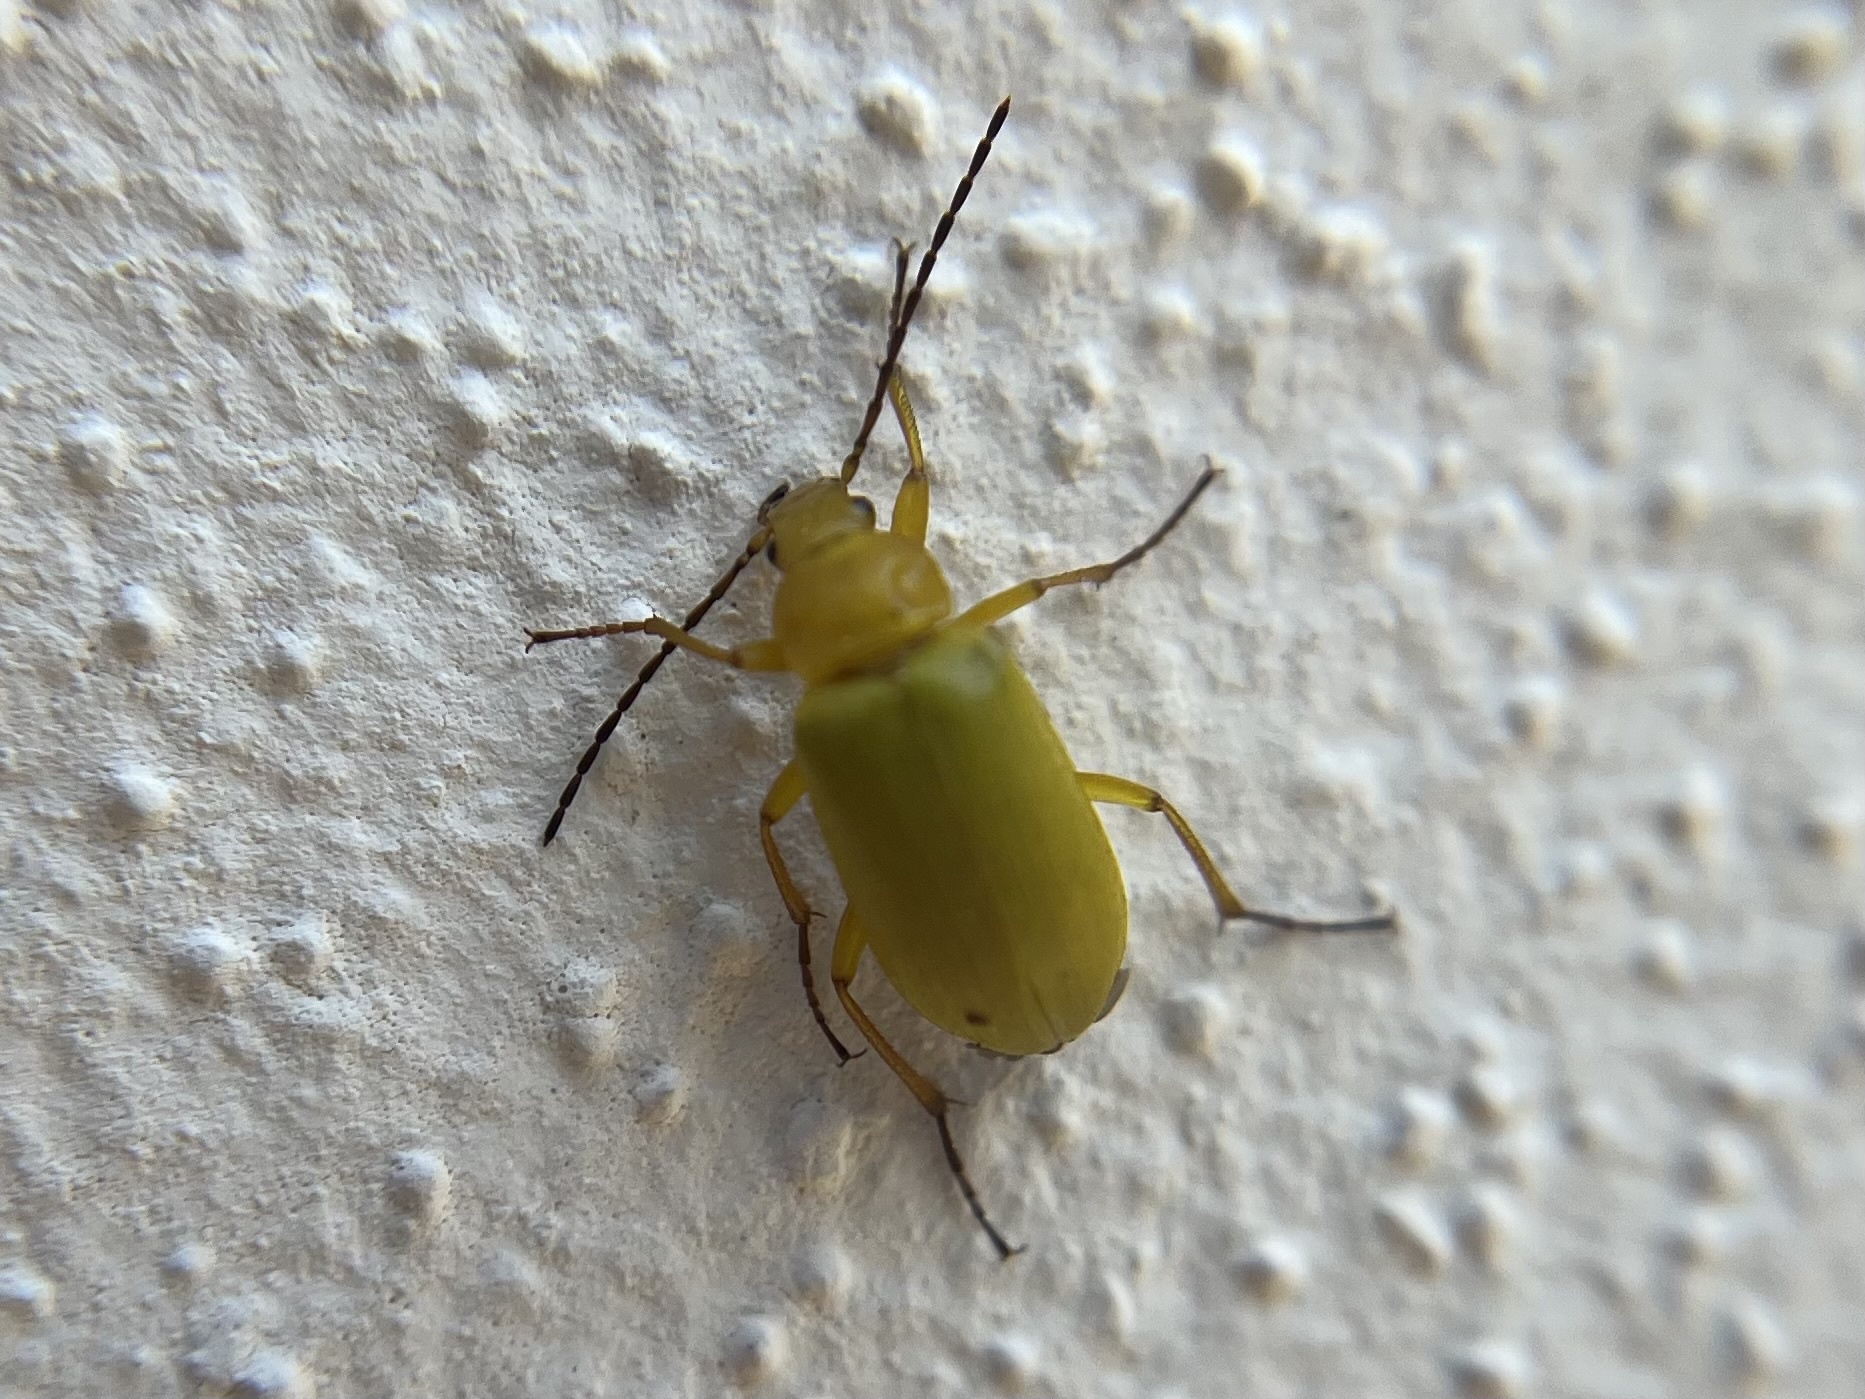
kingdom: Animalia
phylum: Arthropoda
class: Insecta
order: Coleoptera
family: Tenebrionidae
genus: Cteniopus
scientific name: Cteniopus sulphureus
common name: Sulphur beetle
